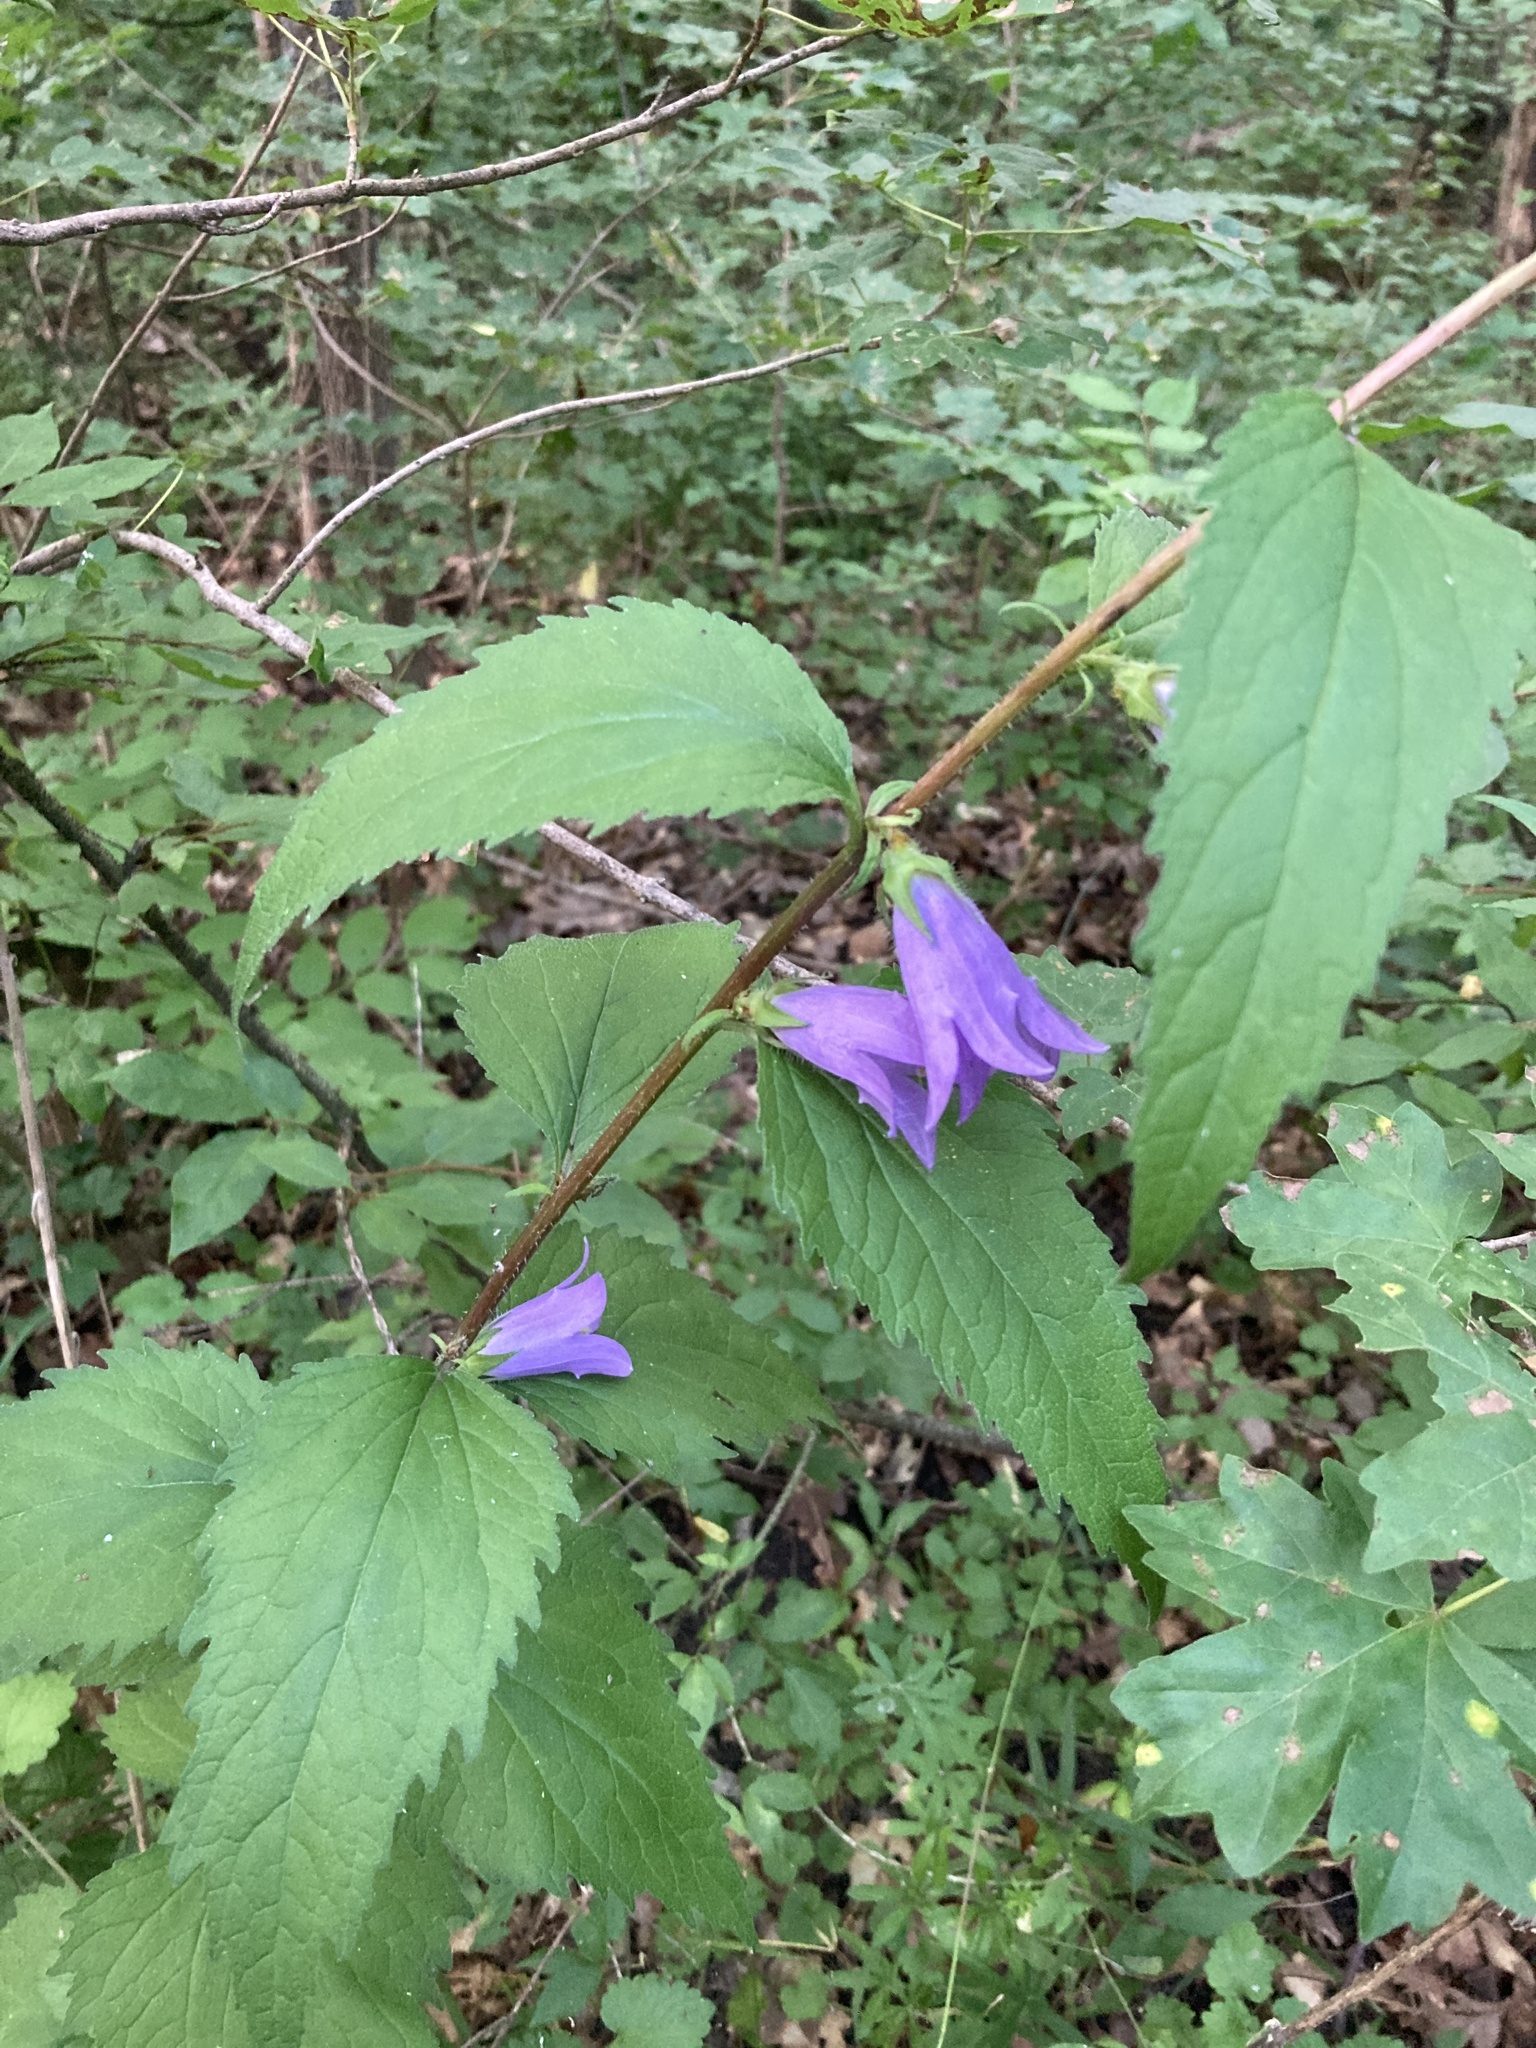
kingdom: Plantae
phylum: Tracheophyta
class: Magnoliopsida
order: Asterales
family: Campanulaceae
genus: Campanula
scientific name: Campanula trachelium
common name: Nettle-leaved bellflower
